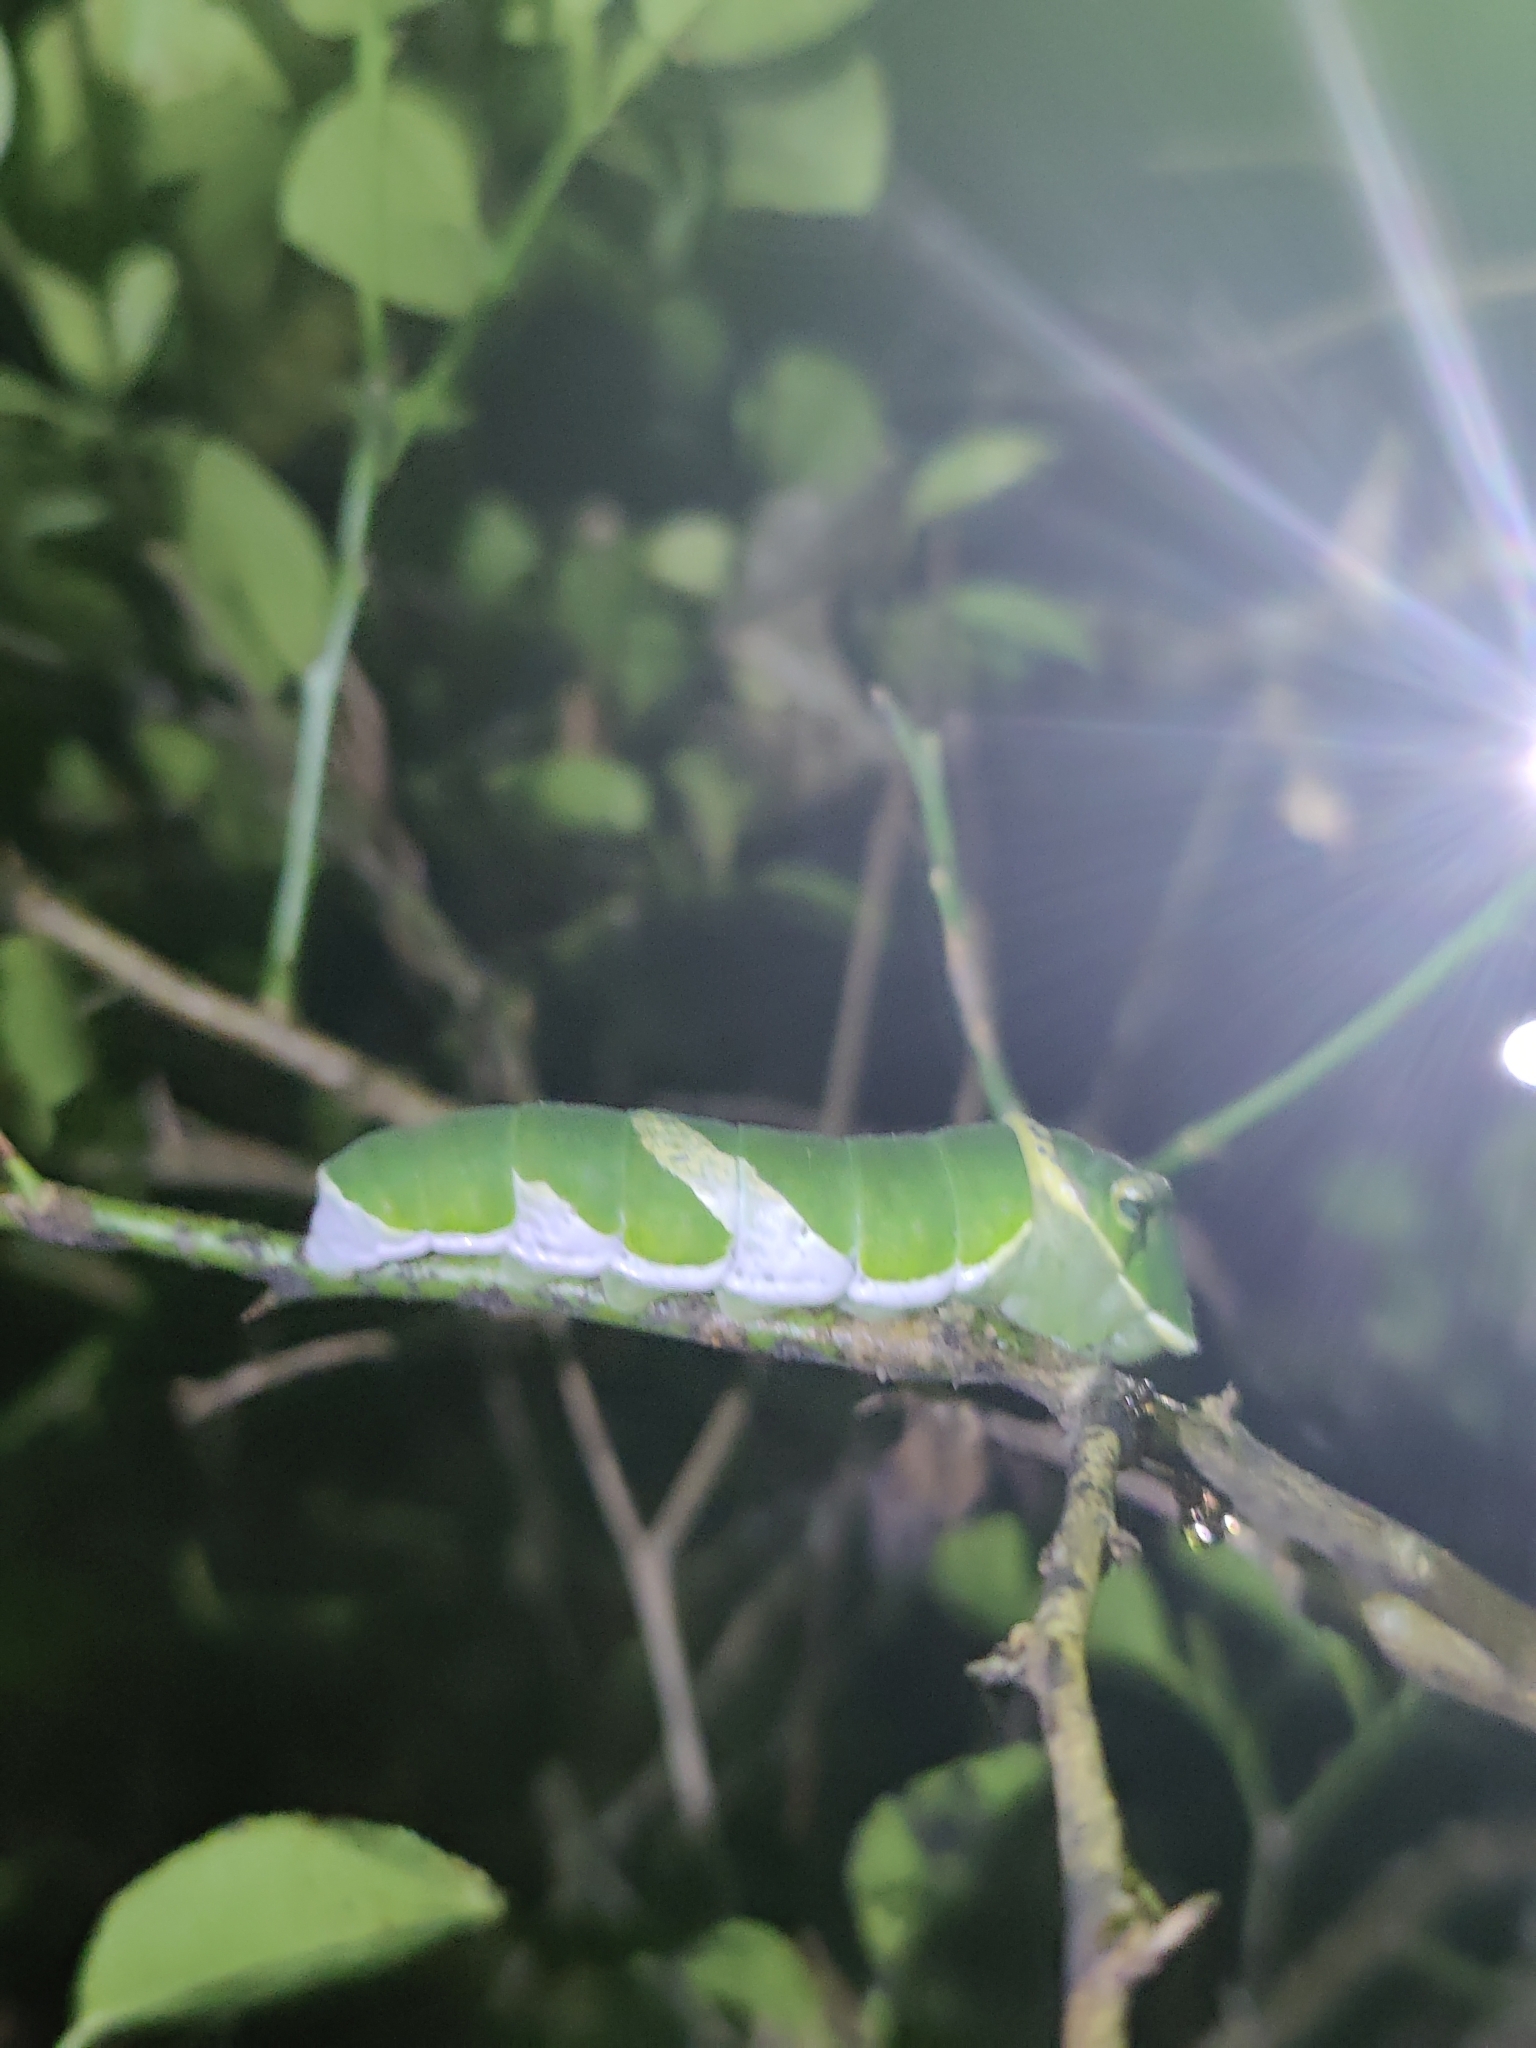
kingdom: Animalia
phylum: Arthropoda
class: Insecta
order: Lepidoptera
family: Papilionidae
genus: Papilio
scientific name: Papilio memnon
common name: Great mormon
